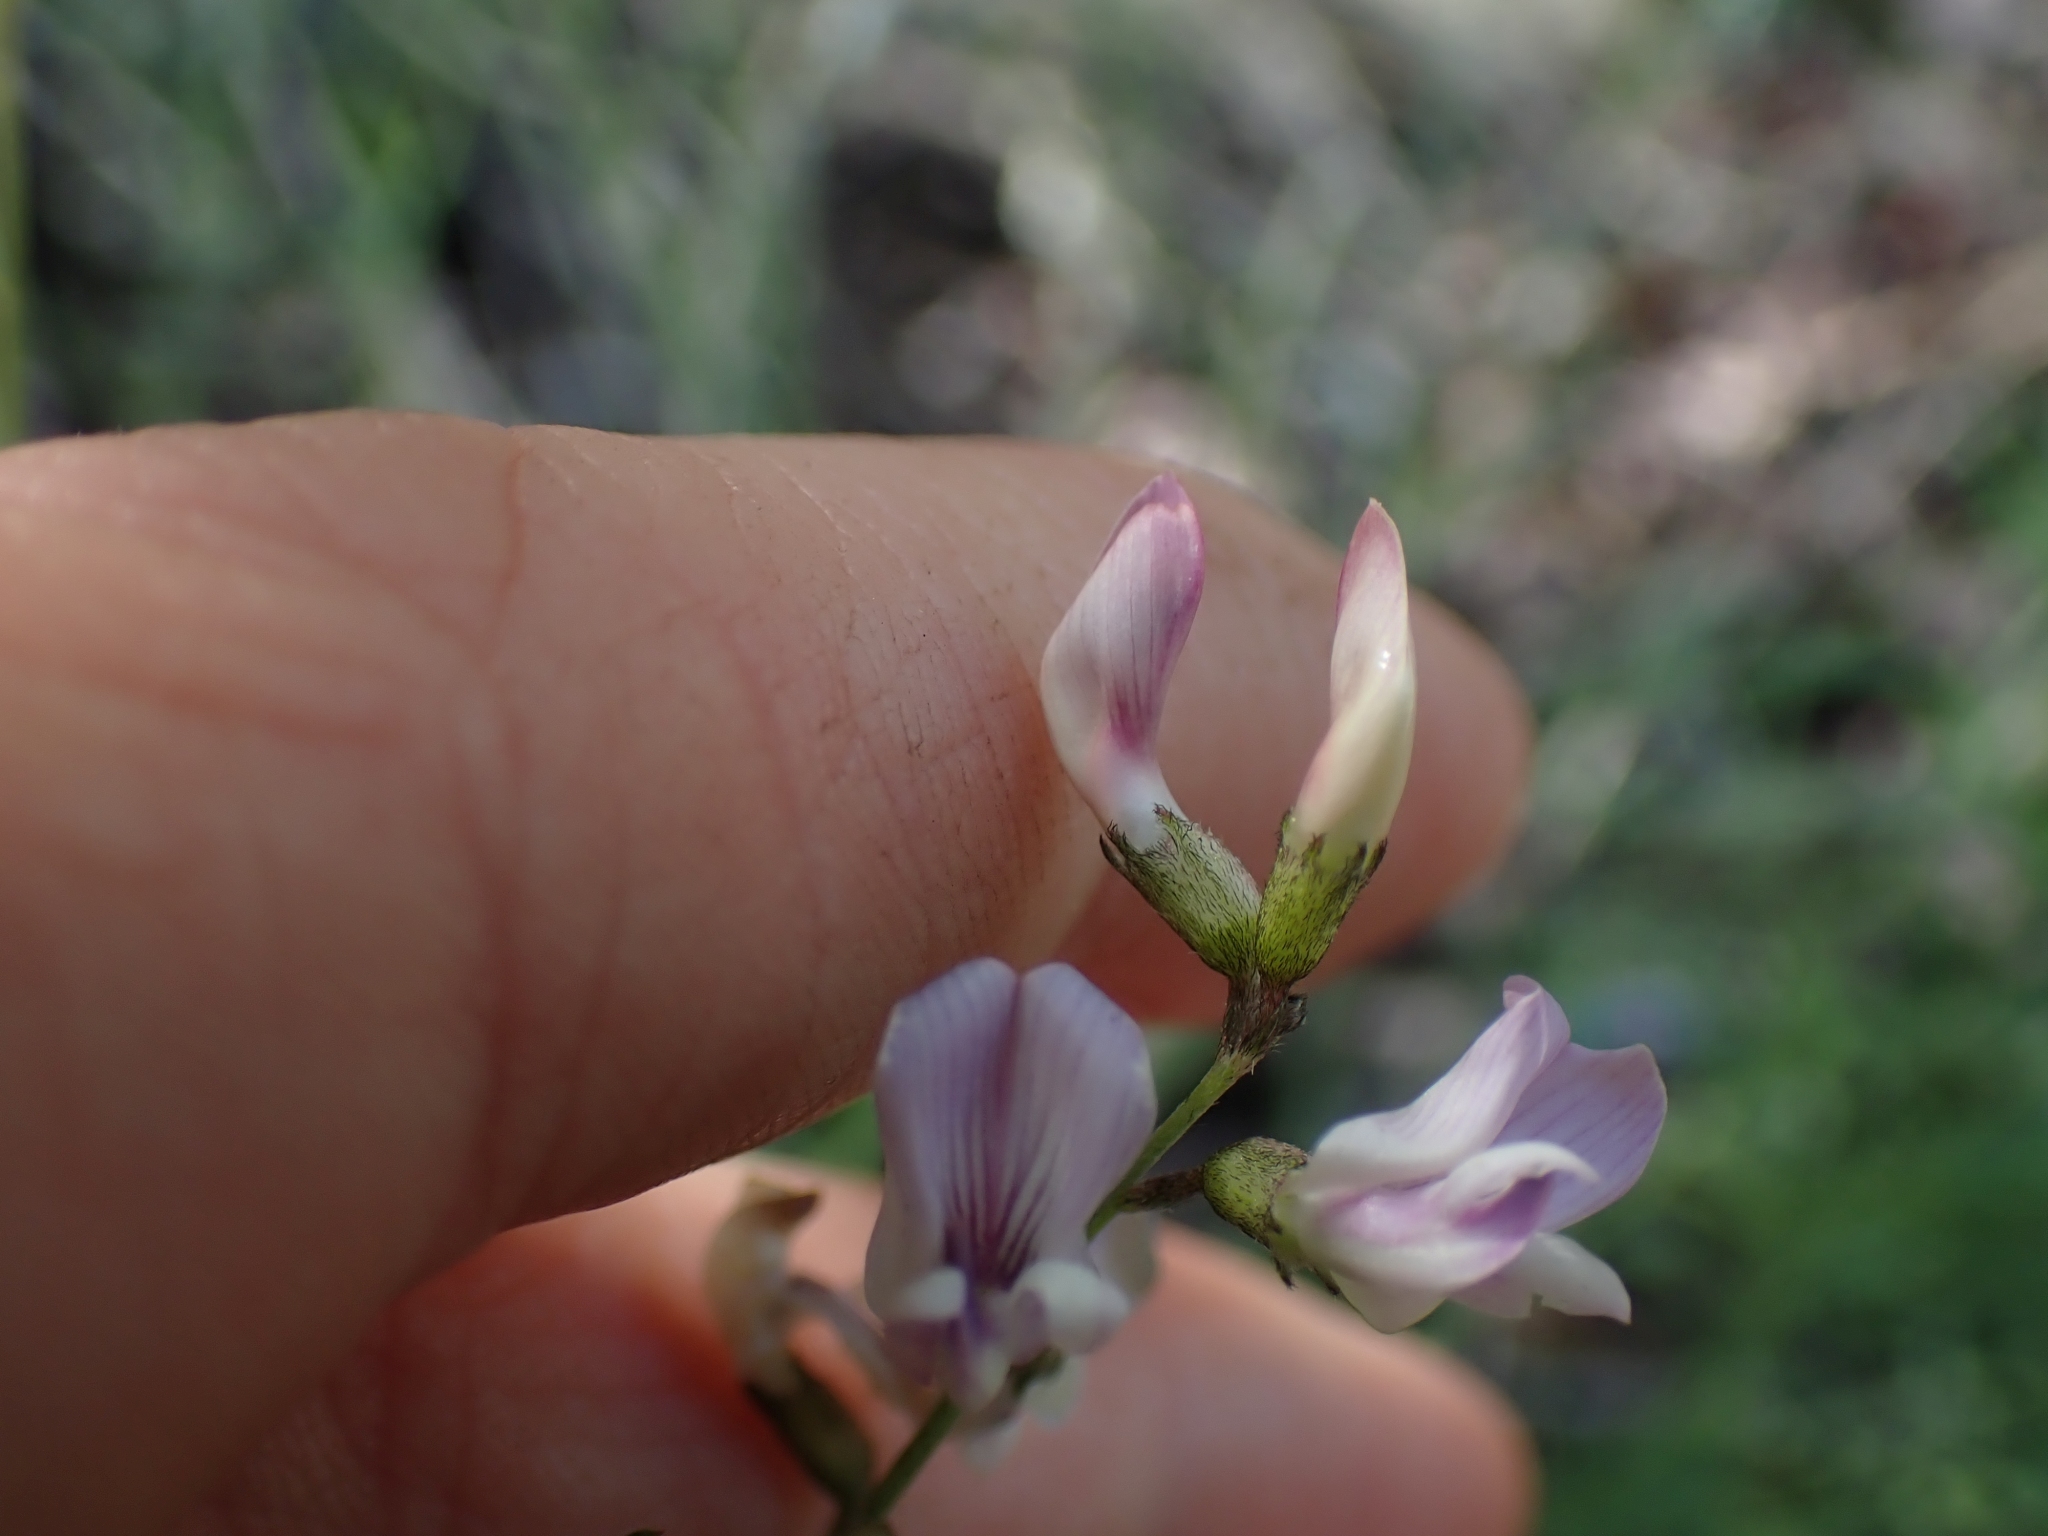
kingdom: Plantae
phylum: Tracheophyta
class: Magnoliopsida
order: Fabales
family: Fabaceae
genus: Astragalus
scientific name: Astragalus miser
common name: Timber milkvetch
